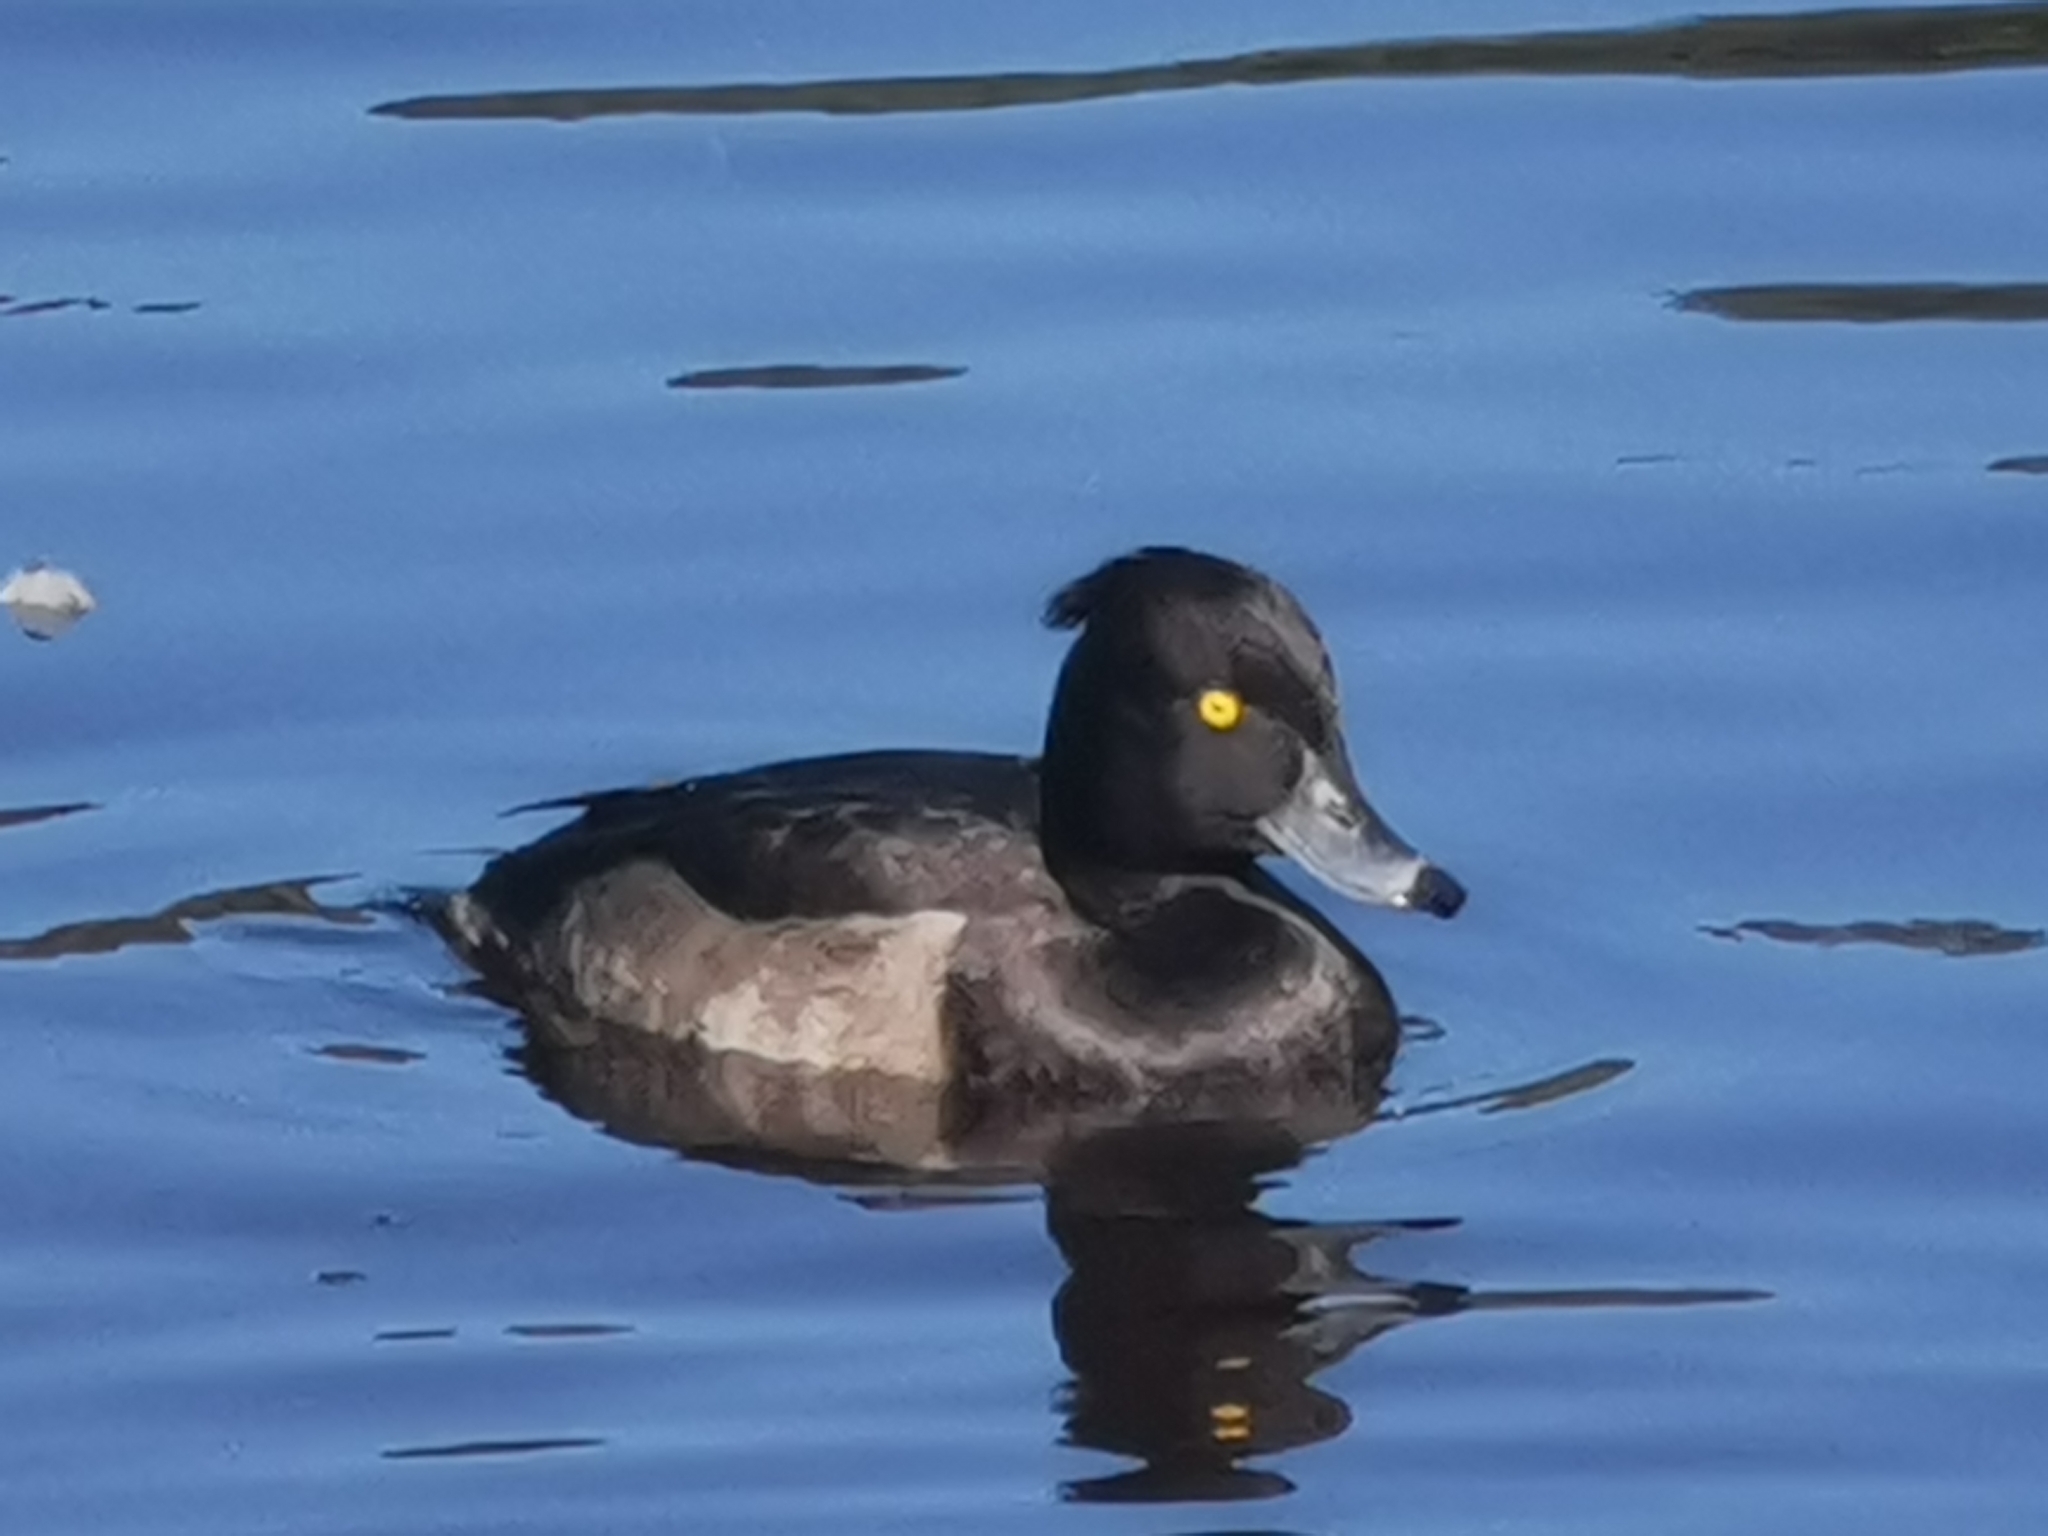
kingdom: Animalia
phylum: Chordata
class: Aves
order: Anseriformes
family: Anatidae
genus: Aythya
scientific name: Aythya fuligula
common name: Tufted duck
